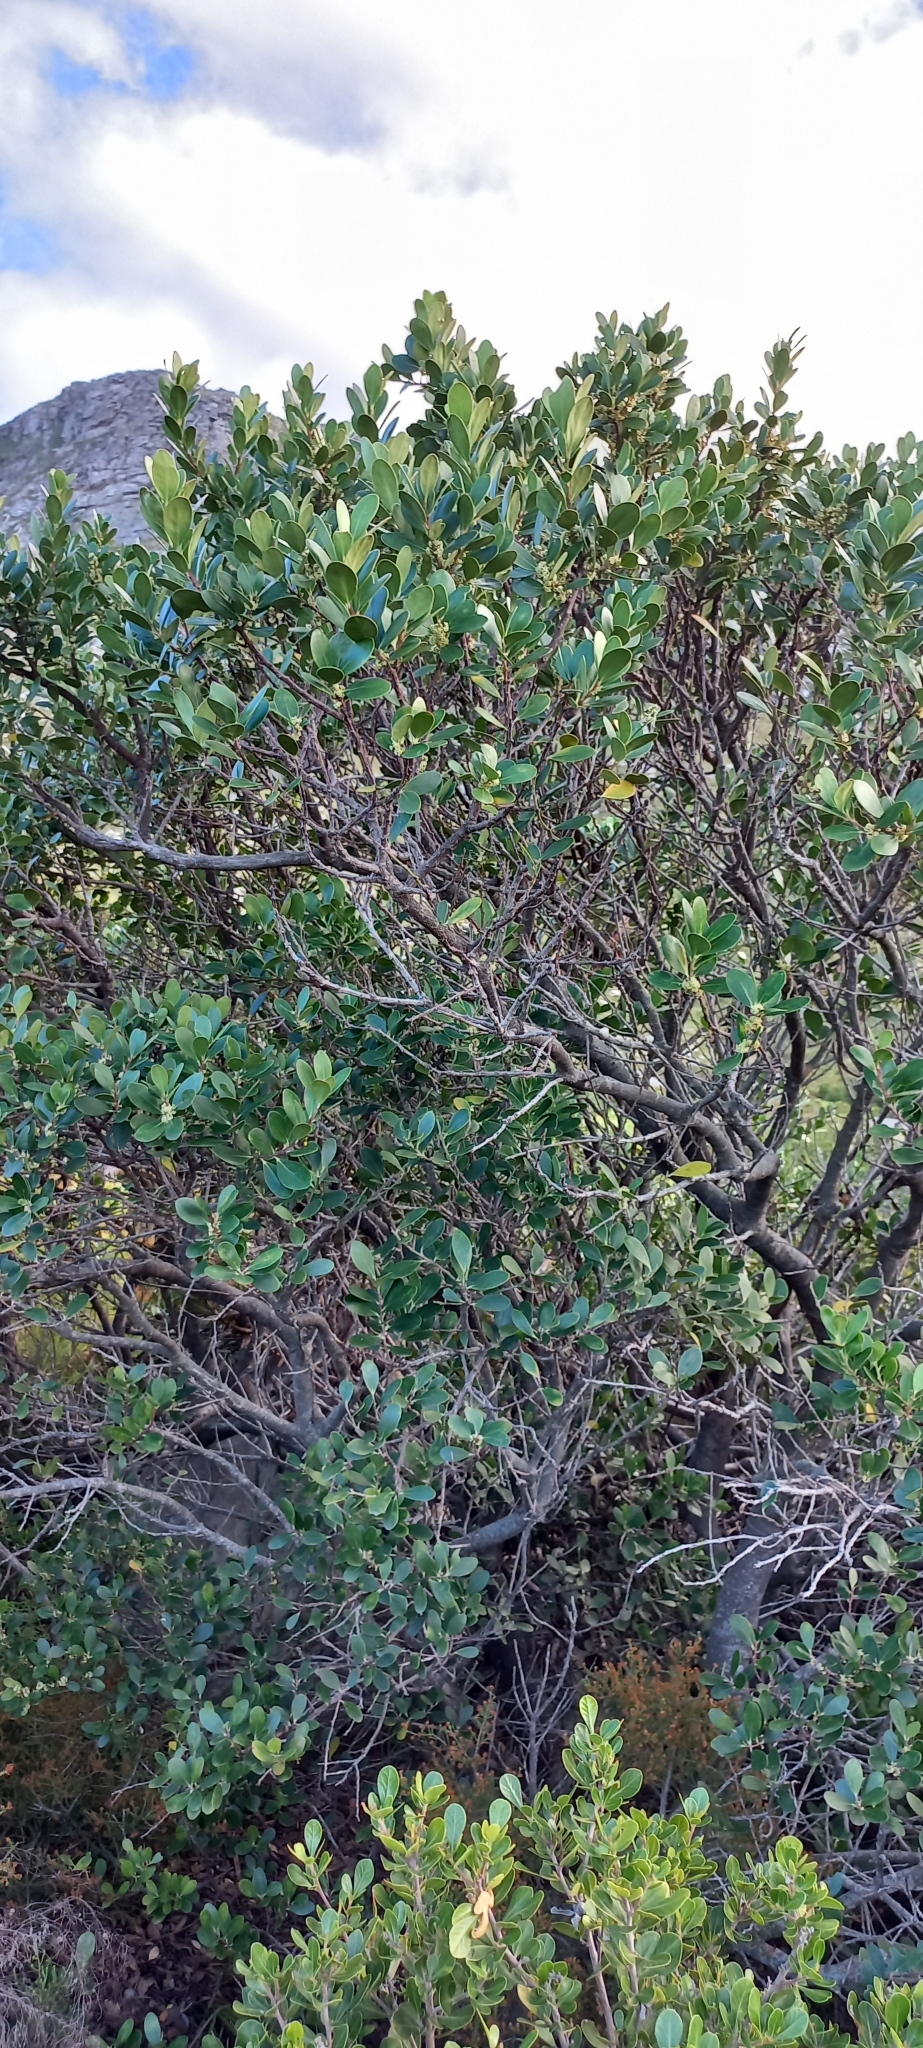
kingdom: Plantae
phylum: Tracheophyta
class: Magnoliopsida
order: Celastrales
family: Celastraceae
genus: Pterocelastrus
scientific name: Pterocelastrus tricuspidatus
